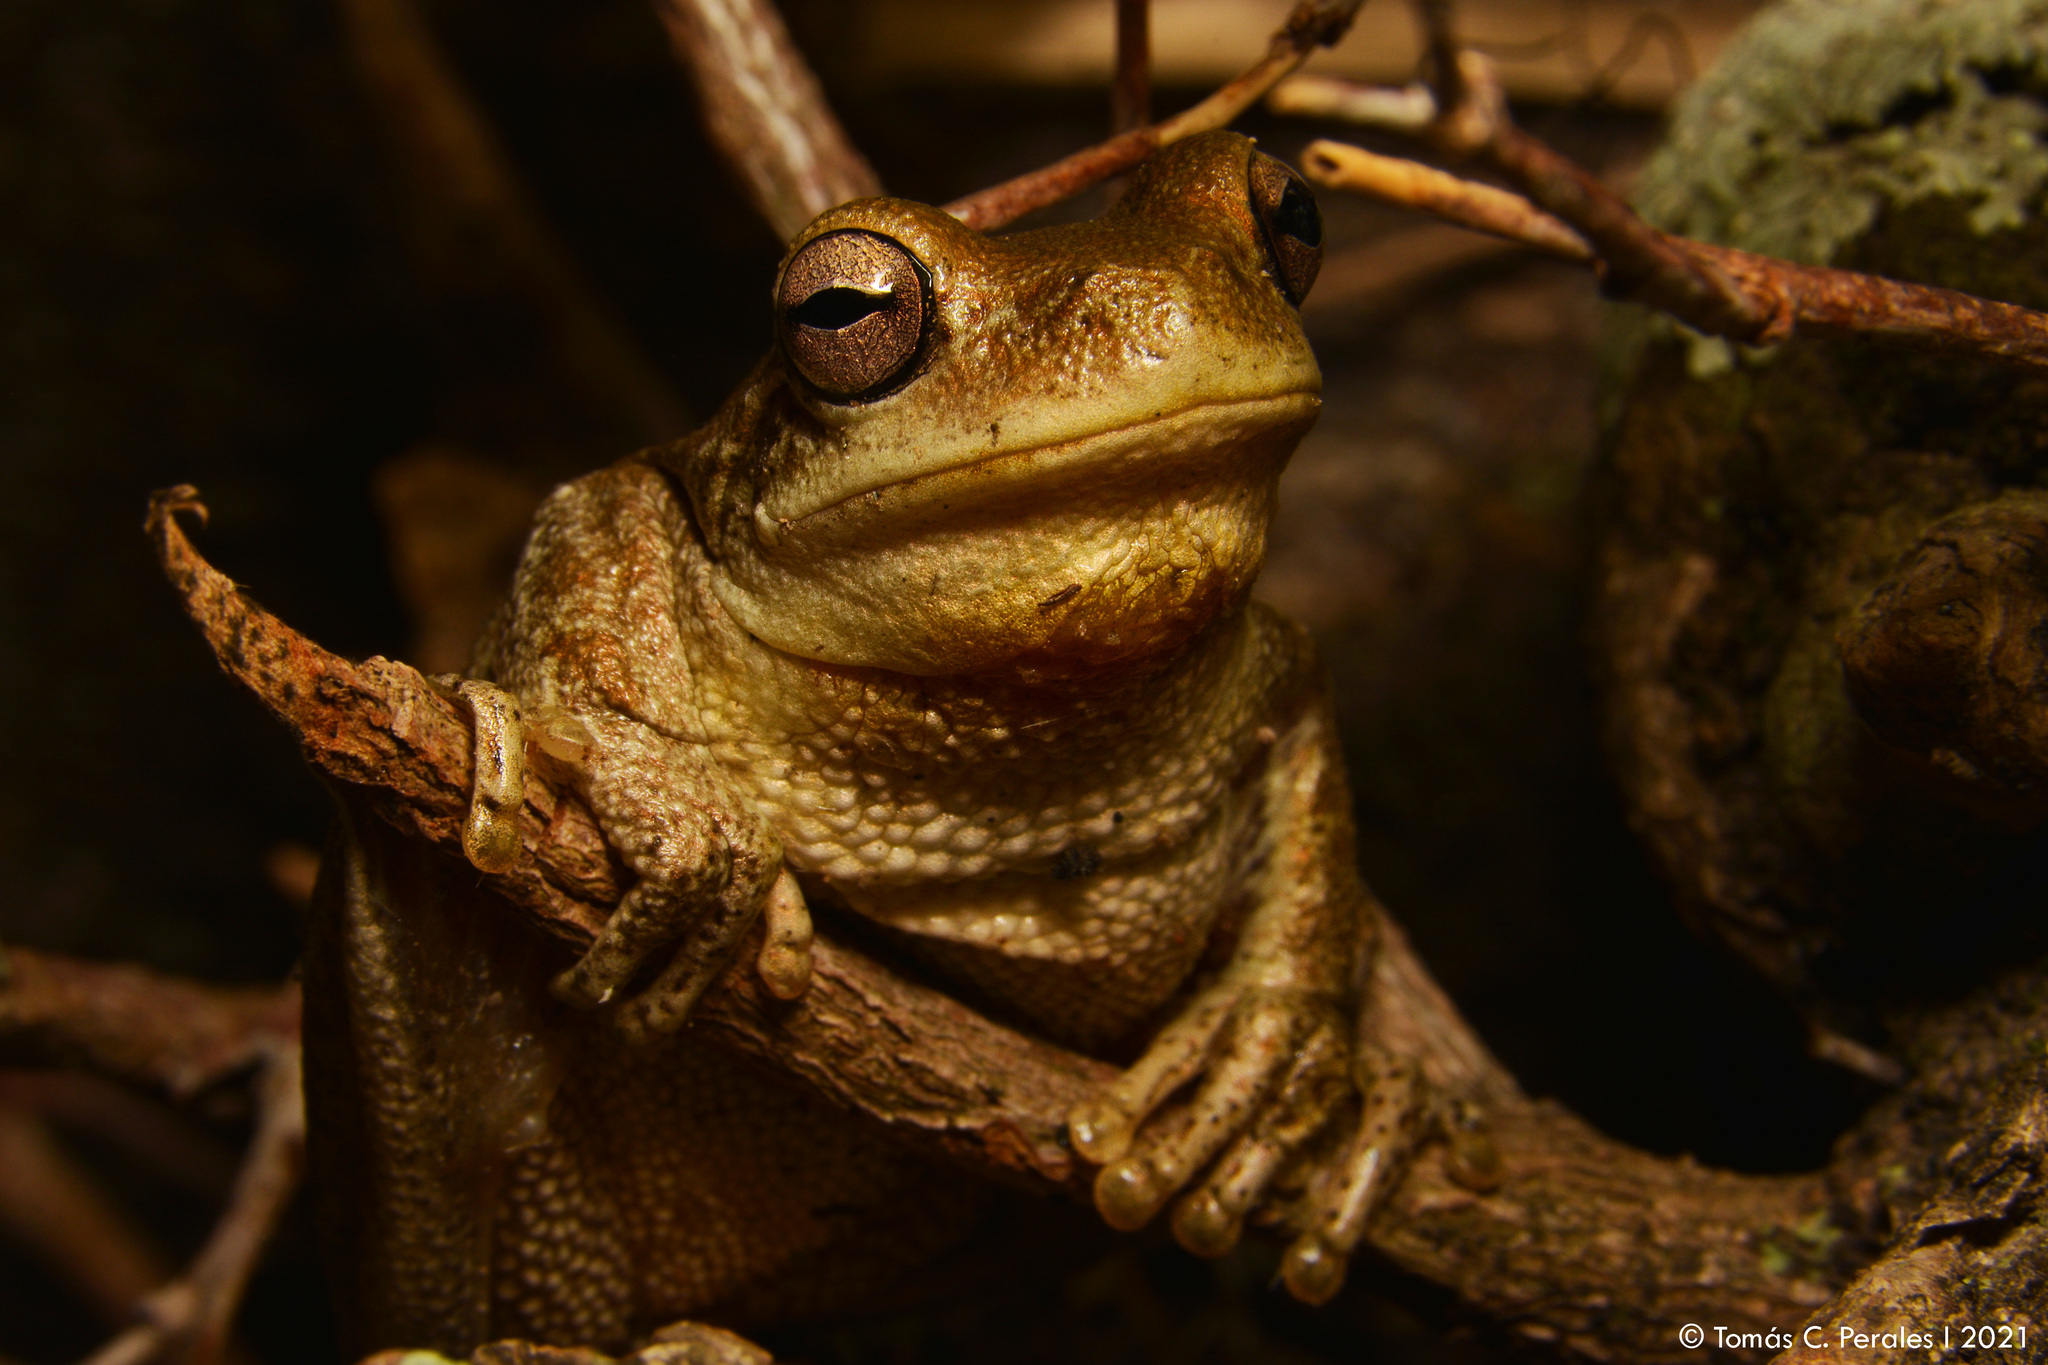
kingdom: Animalia
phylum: Chordata
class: Amphibia
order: Anura
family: Hylidae
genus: Boana
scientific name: Boana cordobae
